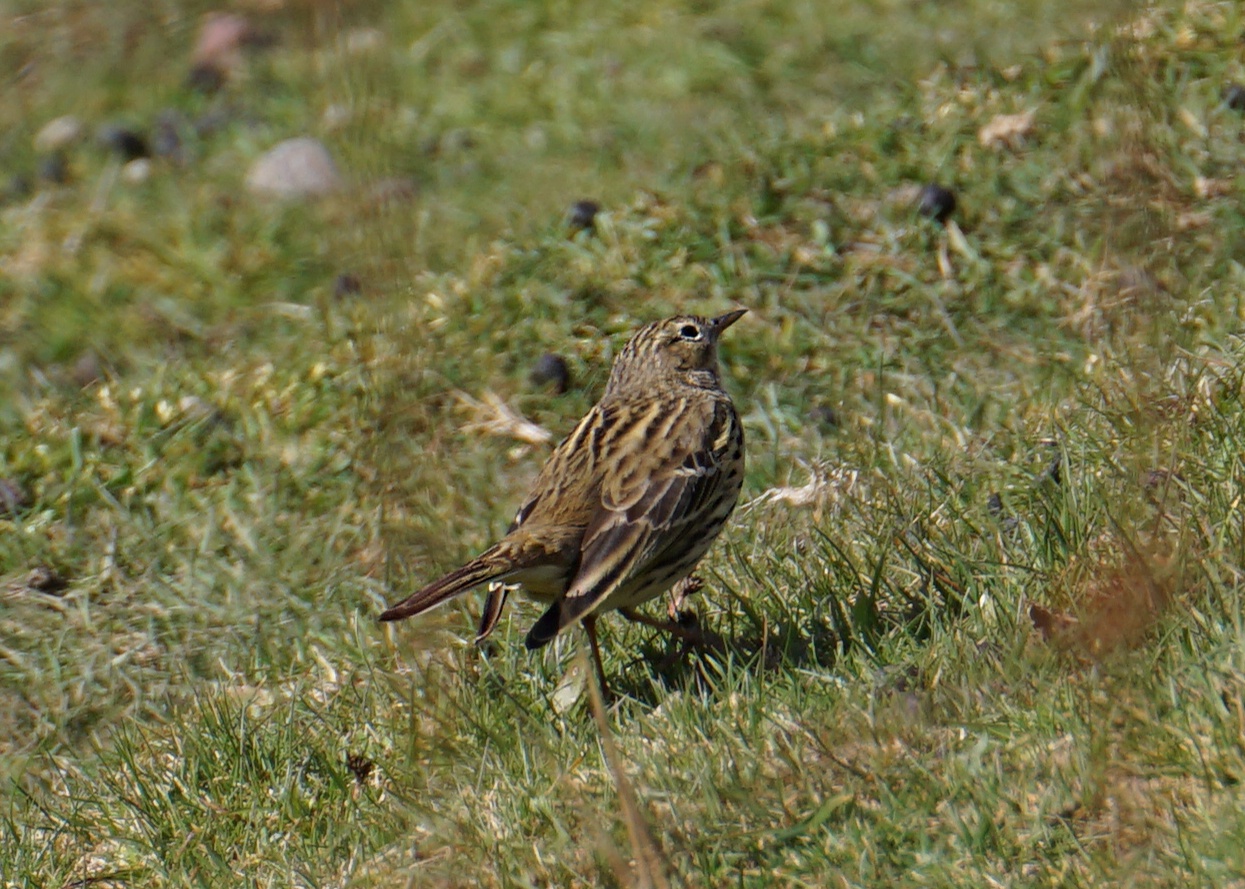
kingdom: Animalia
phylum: Chordata
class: Aves
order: Passeriformes
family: Motacillidae
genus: Anthus
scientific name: Anthus pratensis
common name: Meadow pipit
